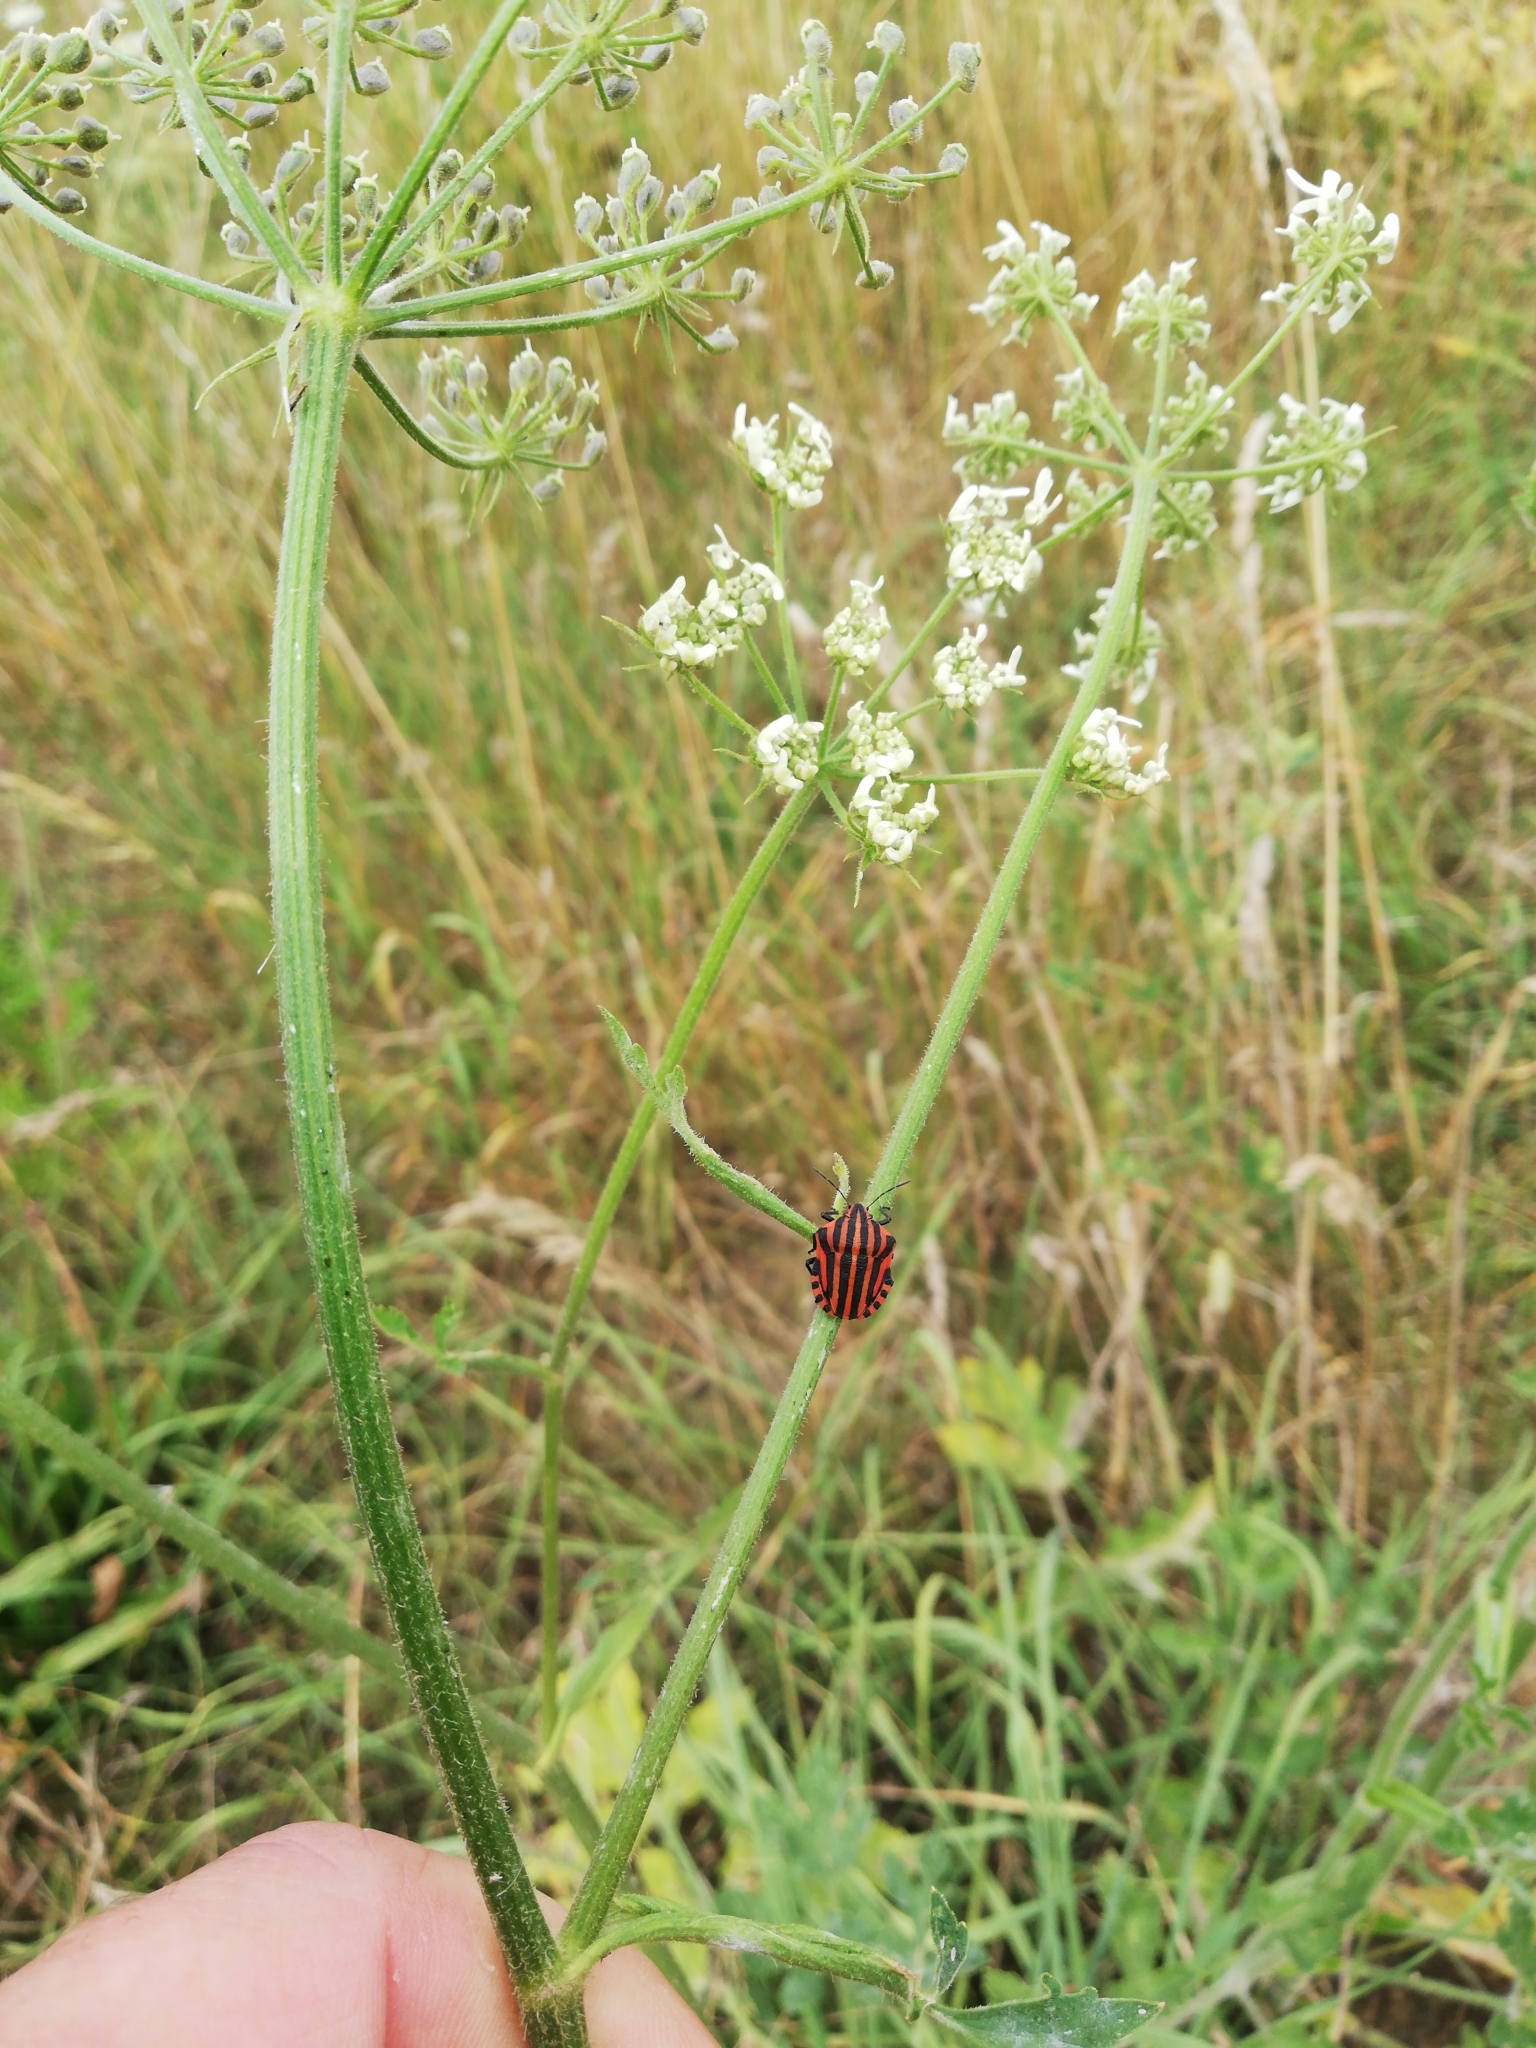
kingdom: Animalia
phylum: Arthropoda
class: Insecta
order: Hemiptera
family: Pentatomidae
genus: Graphosoma
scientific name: Graphosoma italicum
